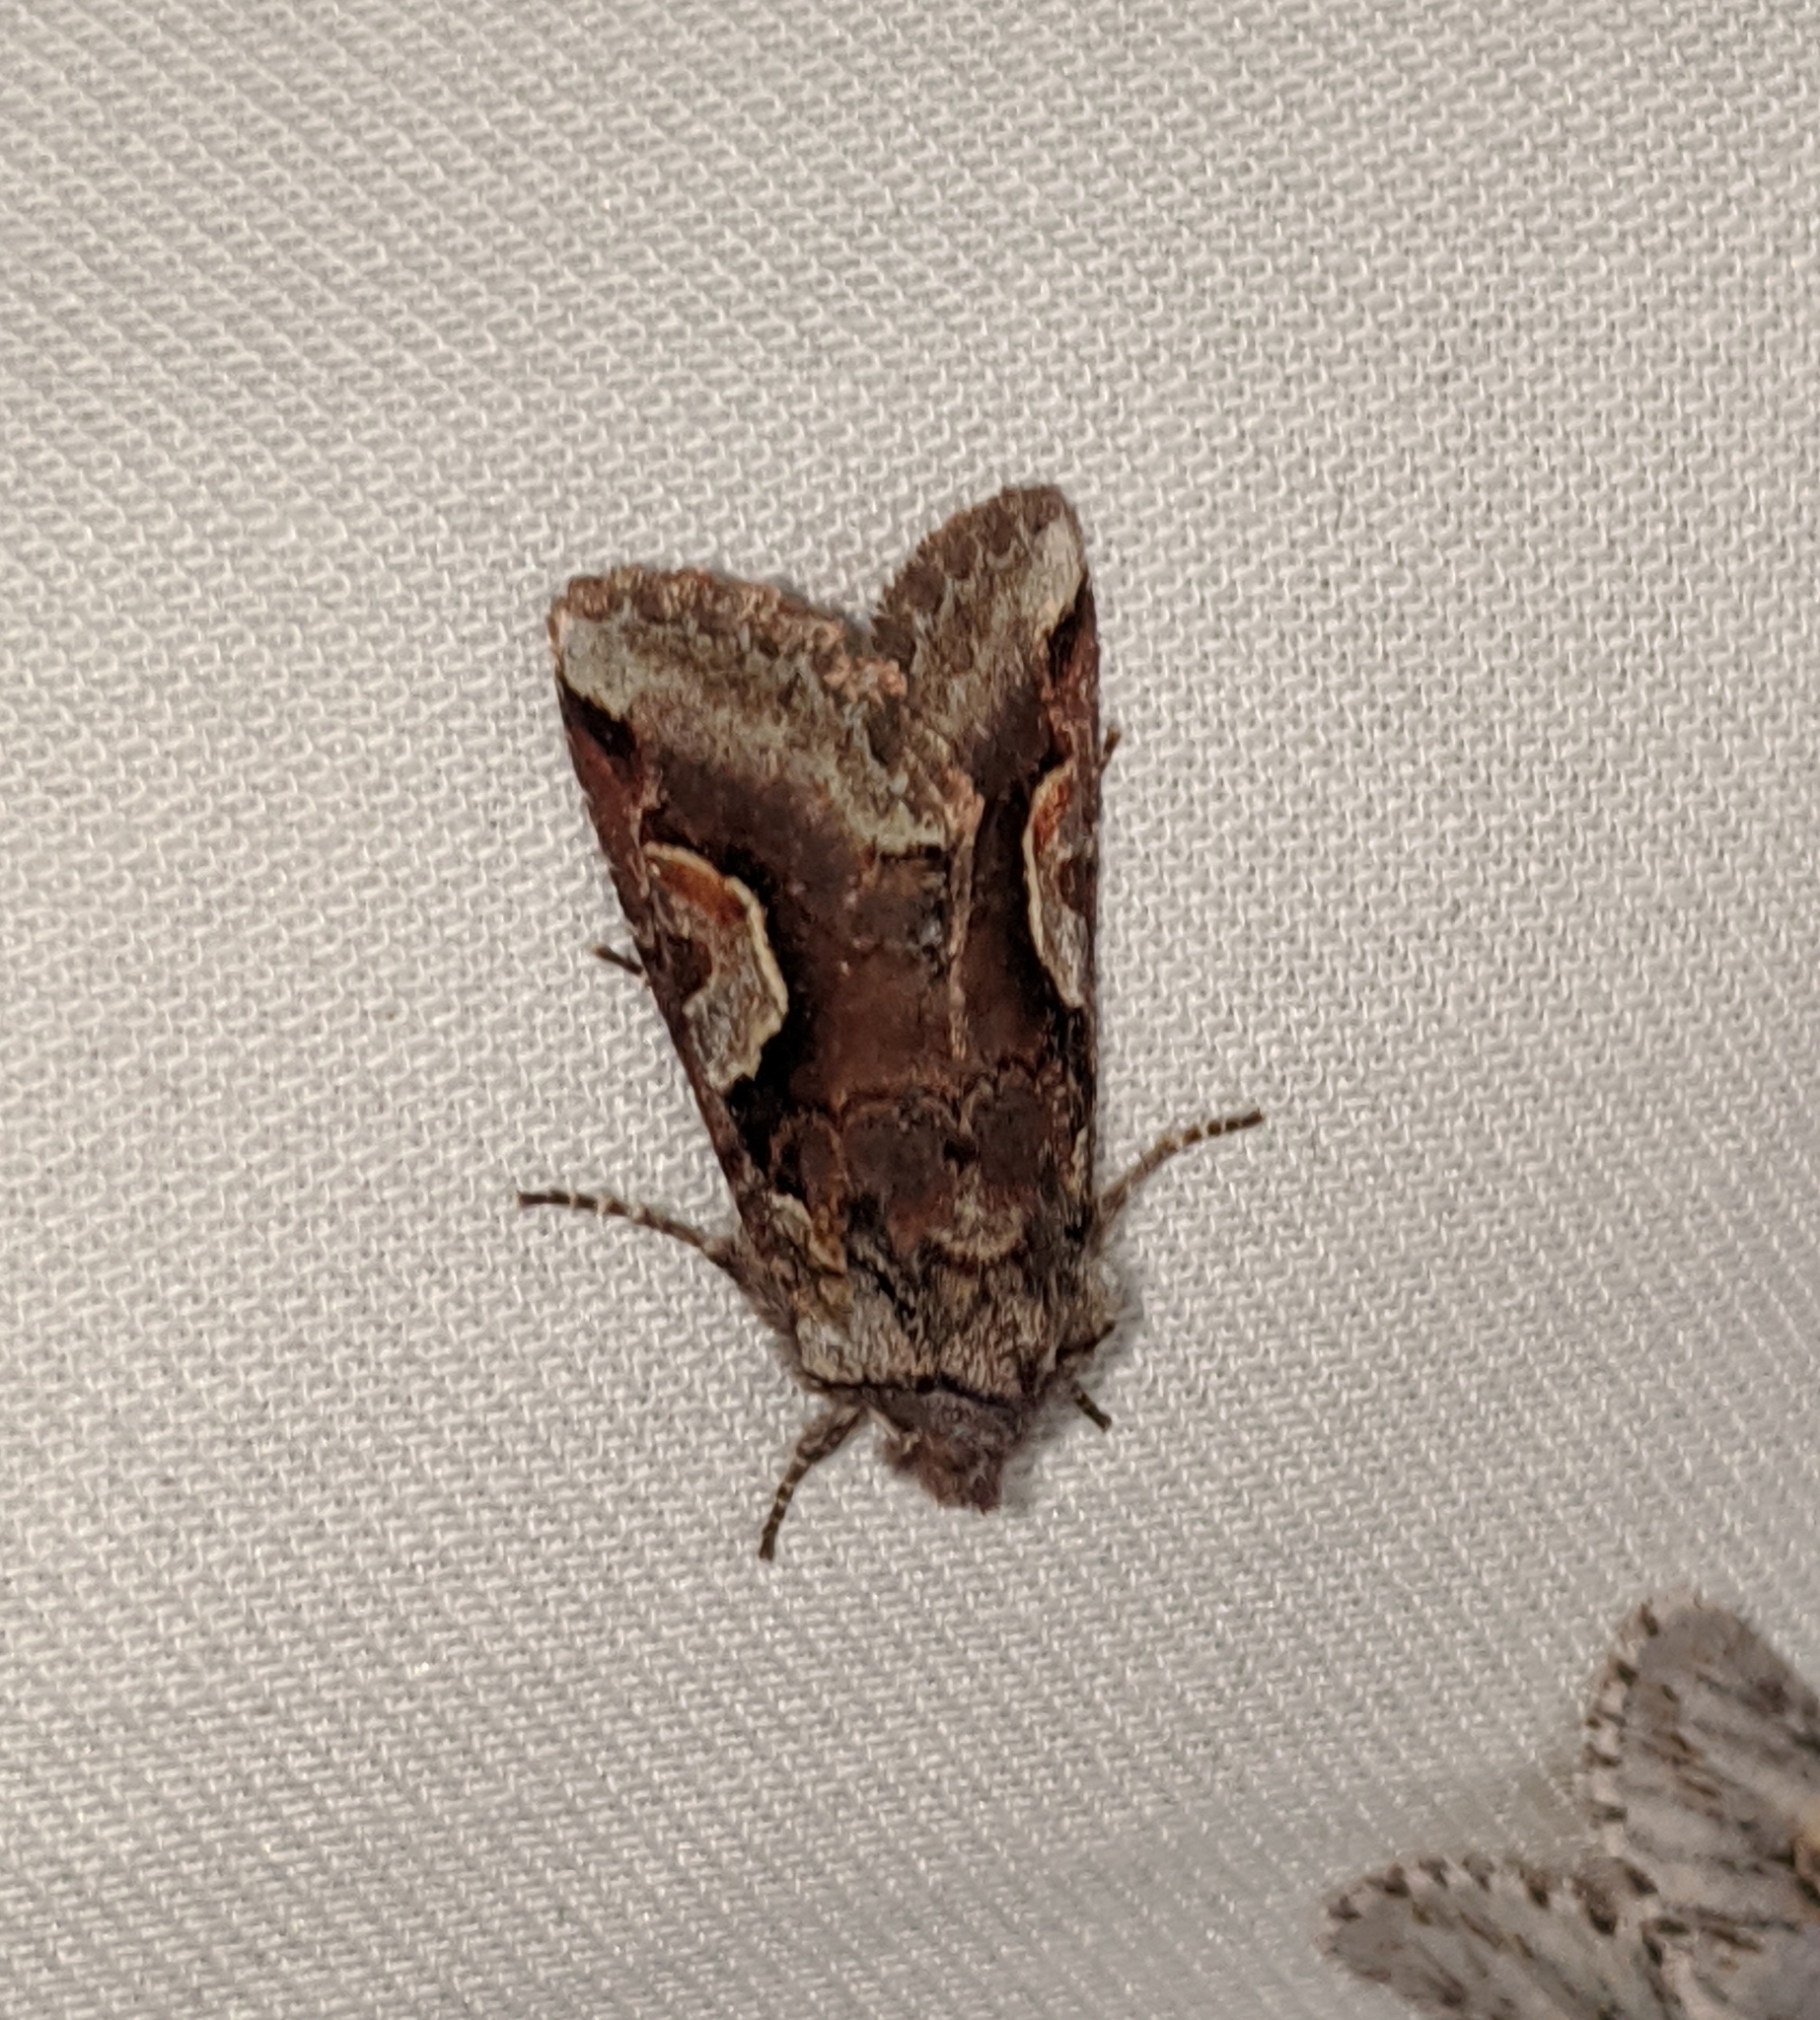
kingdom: Animalia
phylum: Arthropoda
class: Insecta
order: Lepidoptera
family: Noctuidae
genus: Stretchia
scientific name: Stretchia muricina
